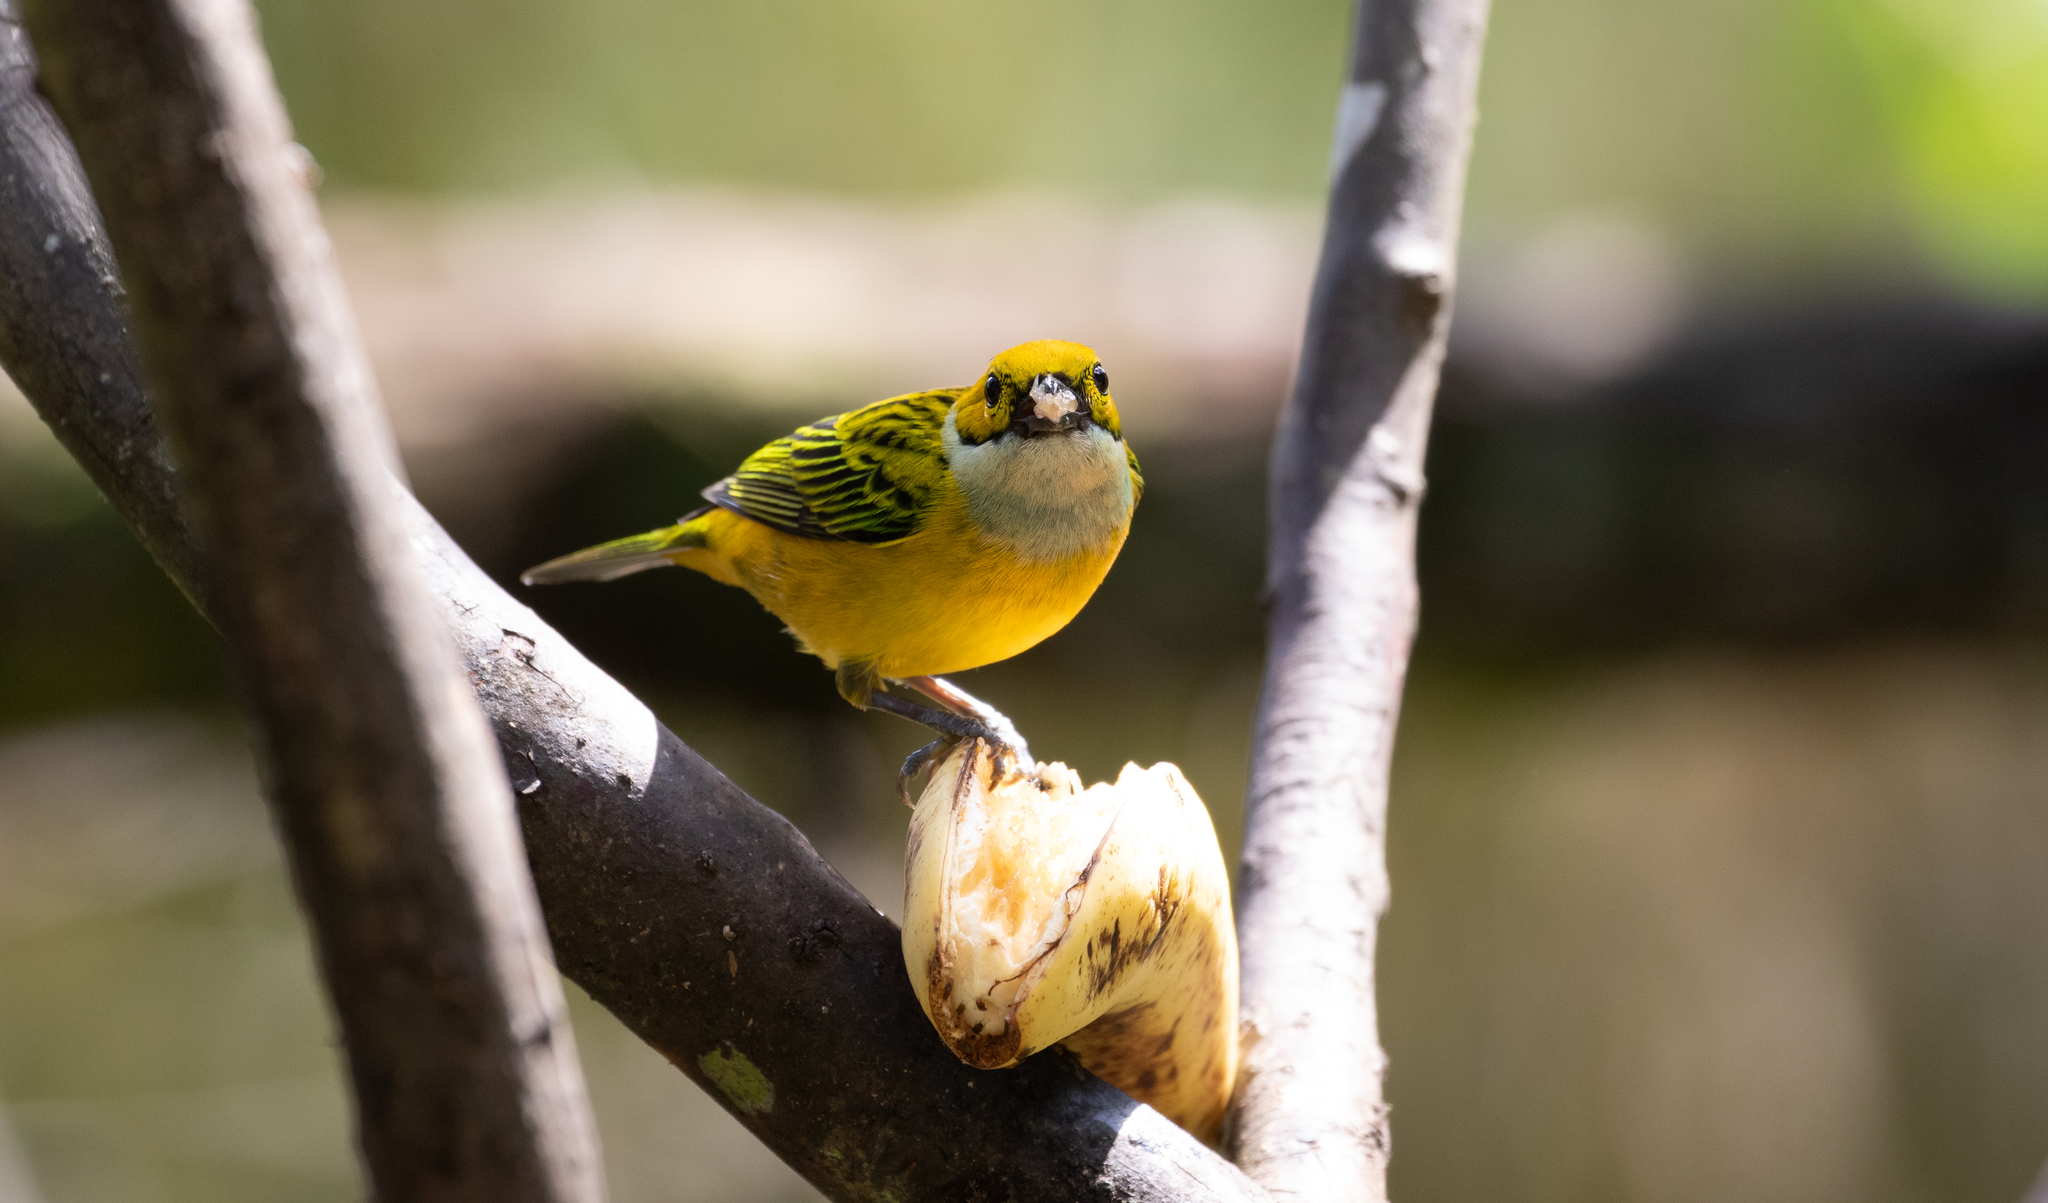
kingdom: Animalia
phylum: Chordata
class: Aves
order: Passeriformes
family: Thraupidae
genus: Tangara
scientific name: Tangara icterocephala
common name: Silver-throated tanager
